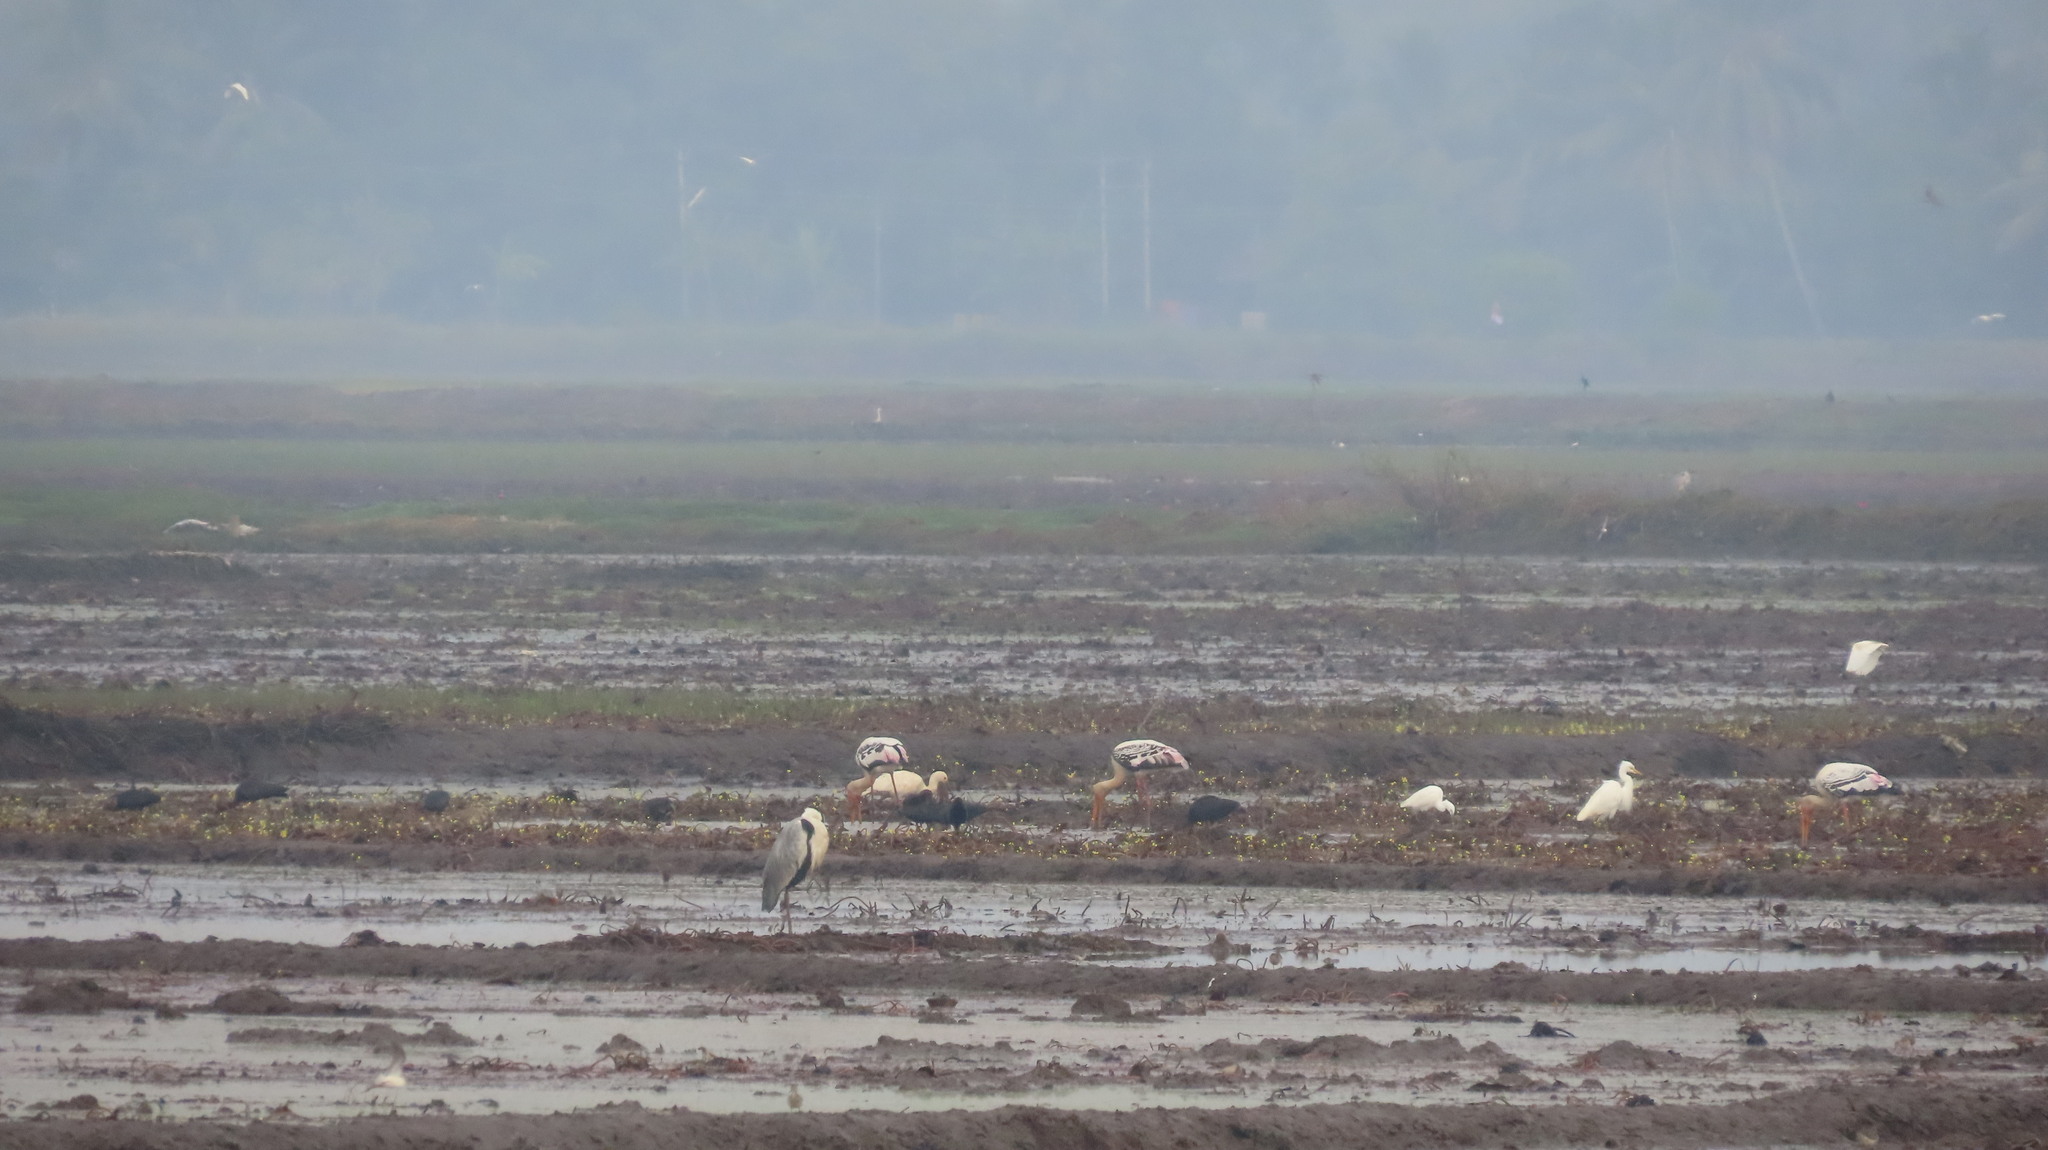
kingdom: Animalia
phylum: Chordata
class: Aves
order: Pelecaniformes
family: Ardeidae
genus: Ardea
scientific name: Ardea cinerea
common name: Grey heron
